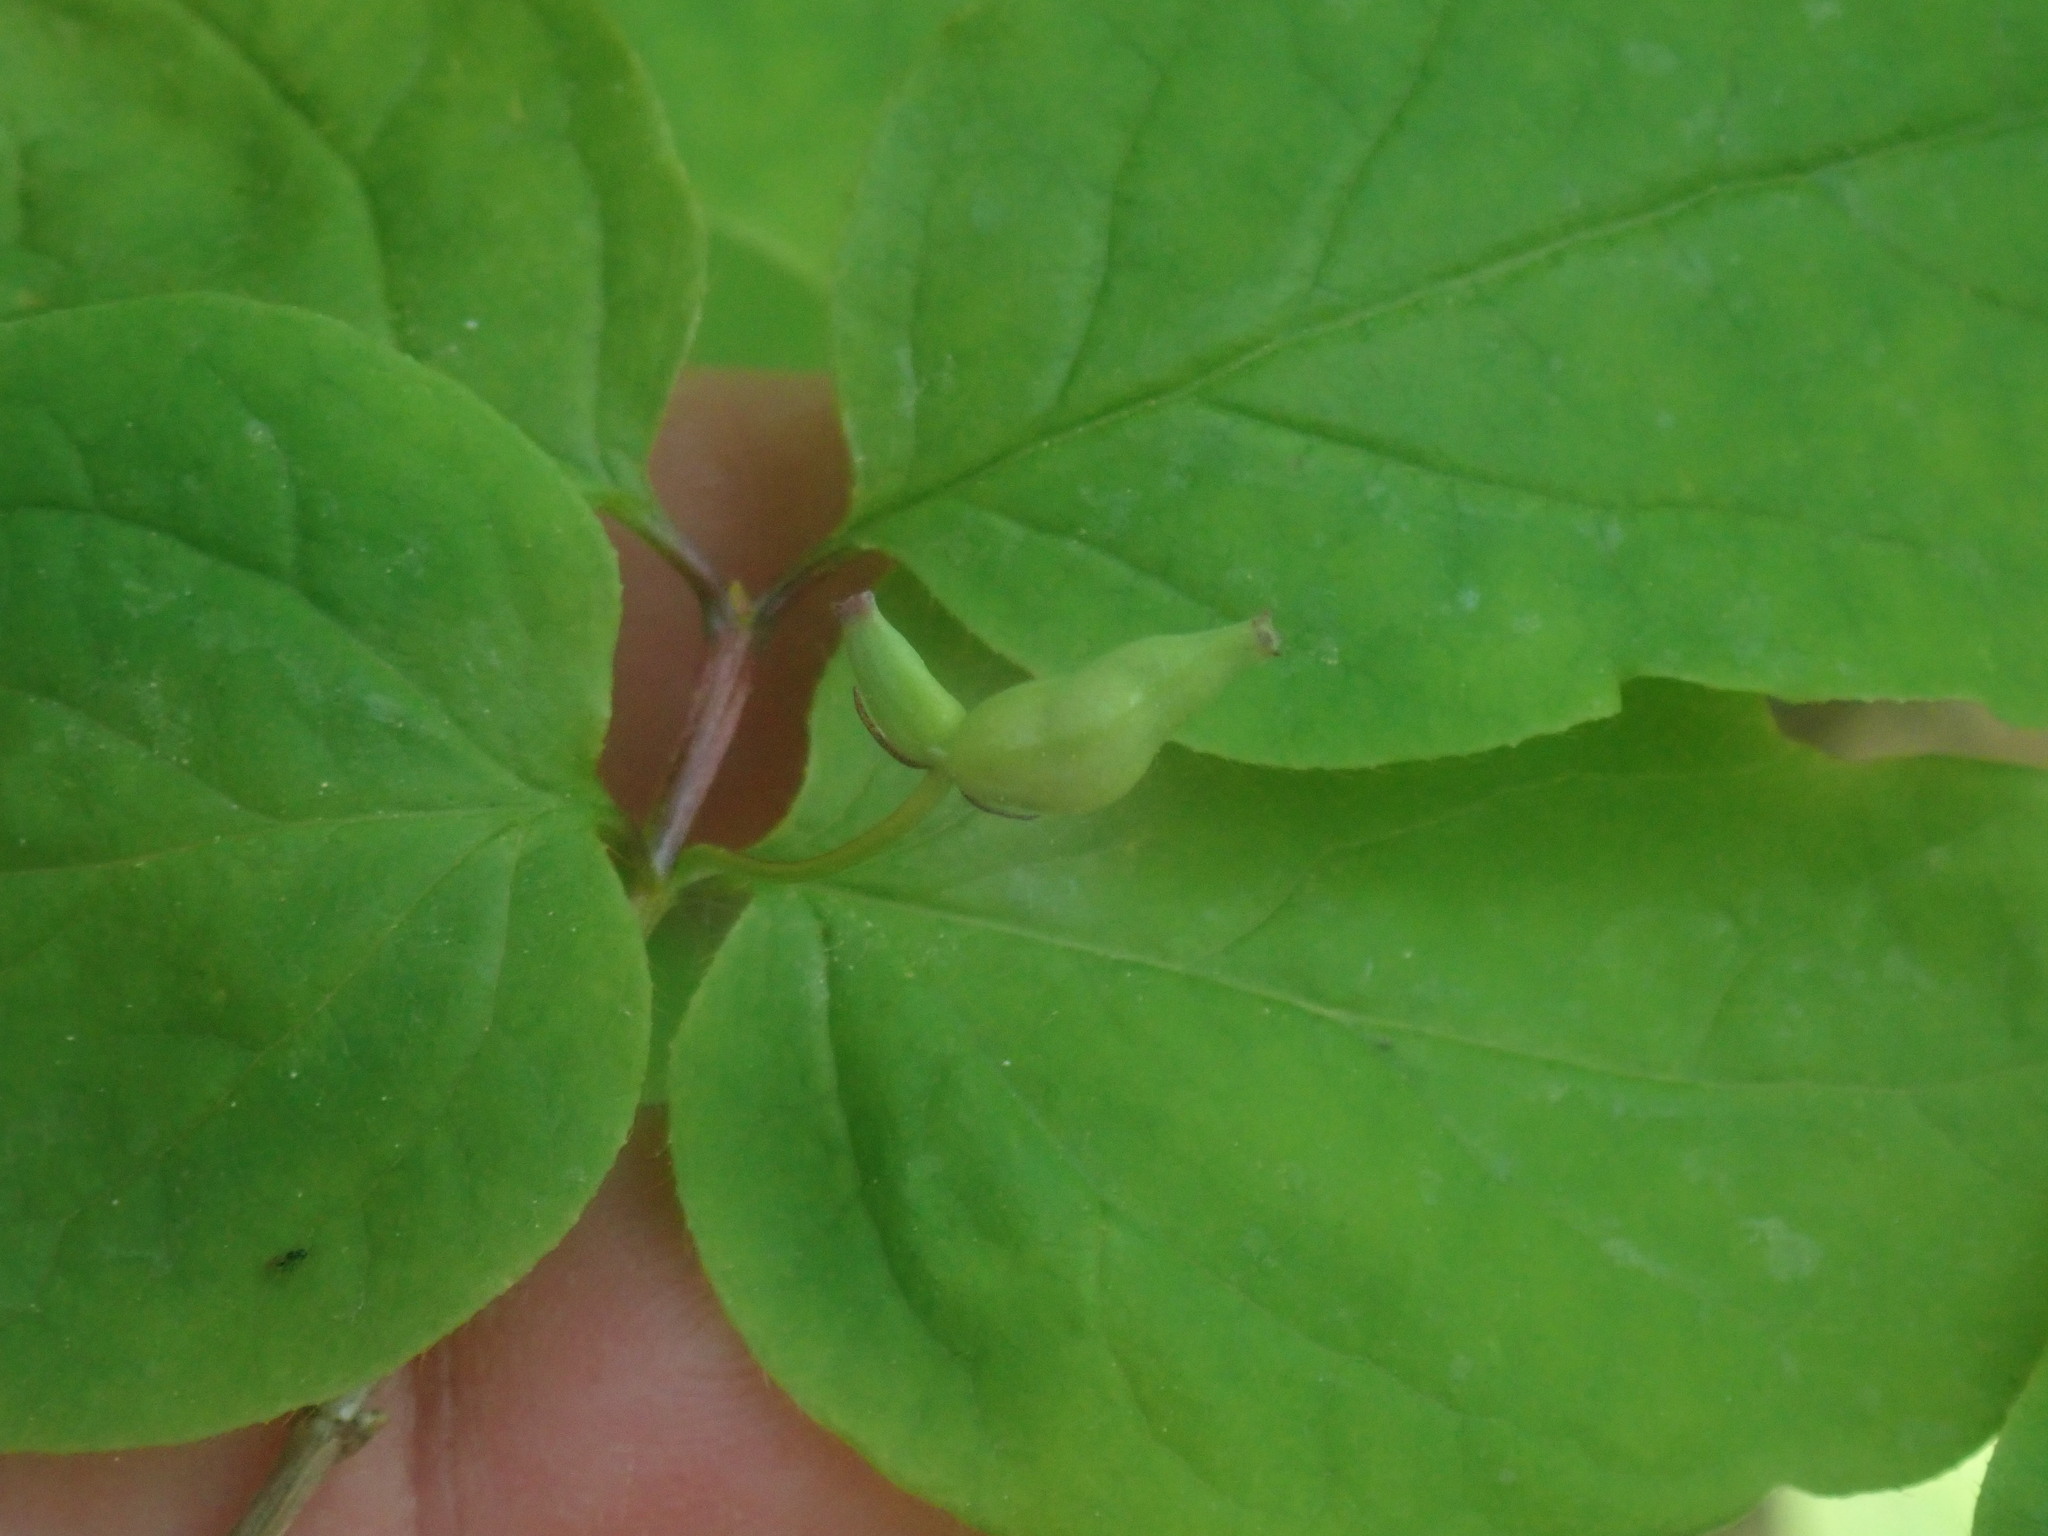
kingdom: Plantae
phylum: Tracheophyta
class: Magnoliopsida
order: Dipsacales
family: Caprifoliaceae
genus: Lonicera
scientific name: Lonicera canadensis
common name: American fly-honeysuckle
